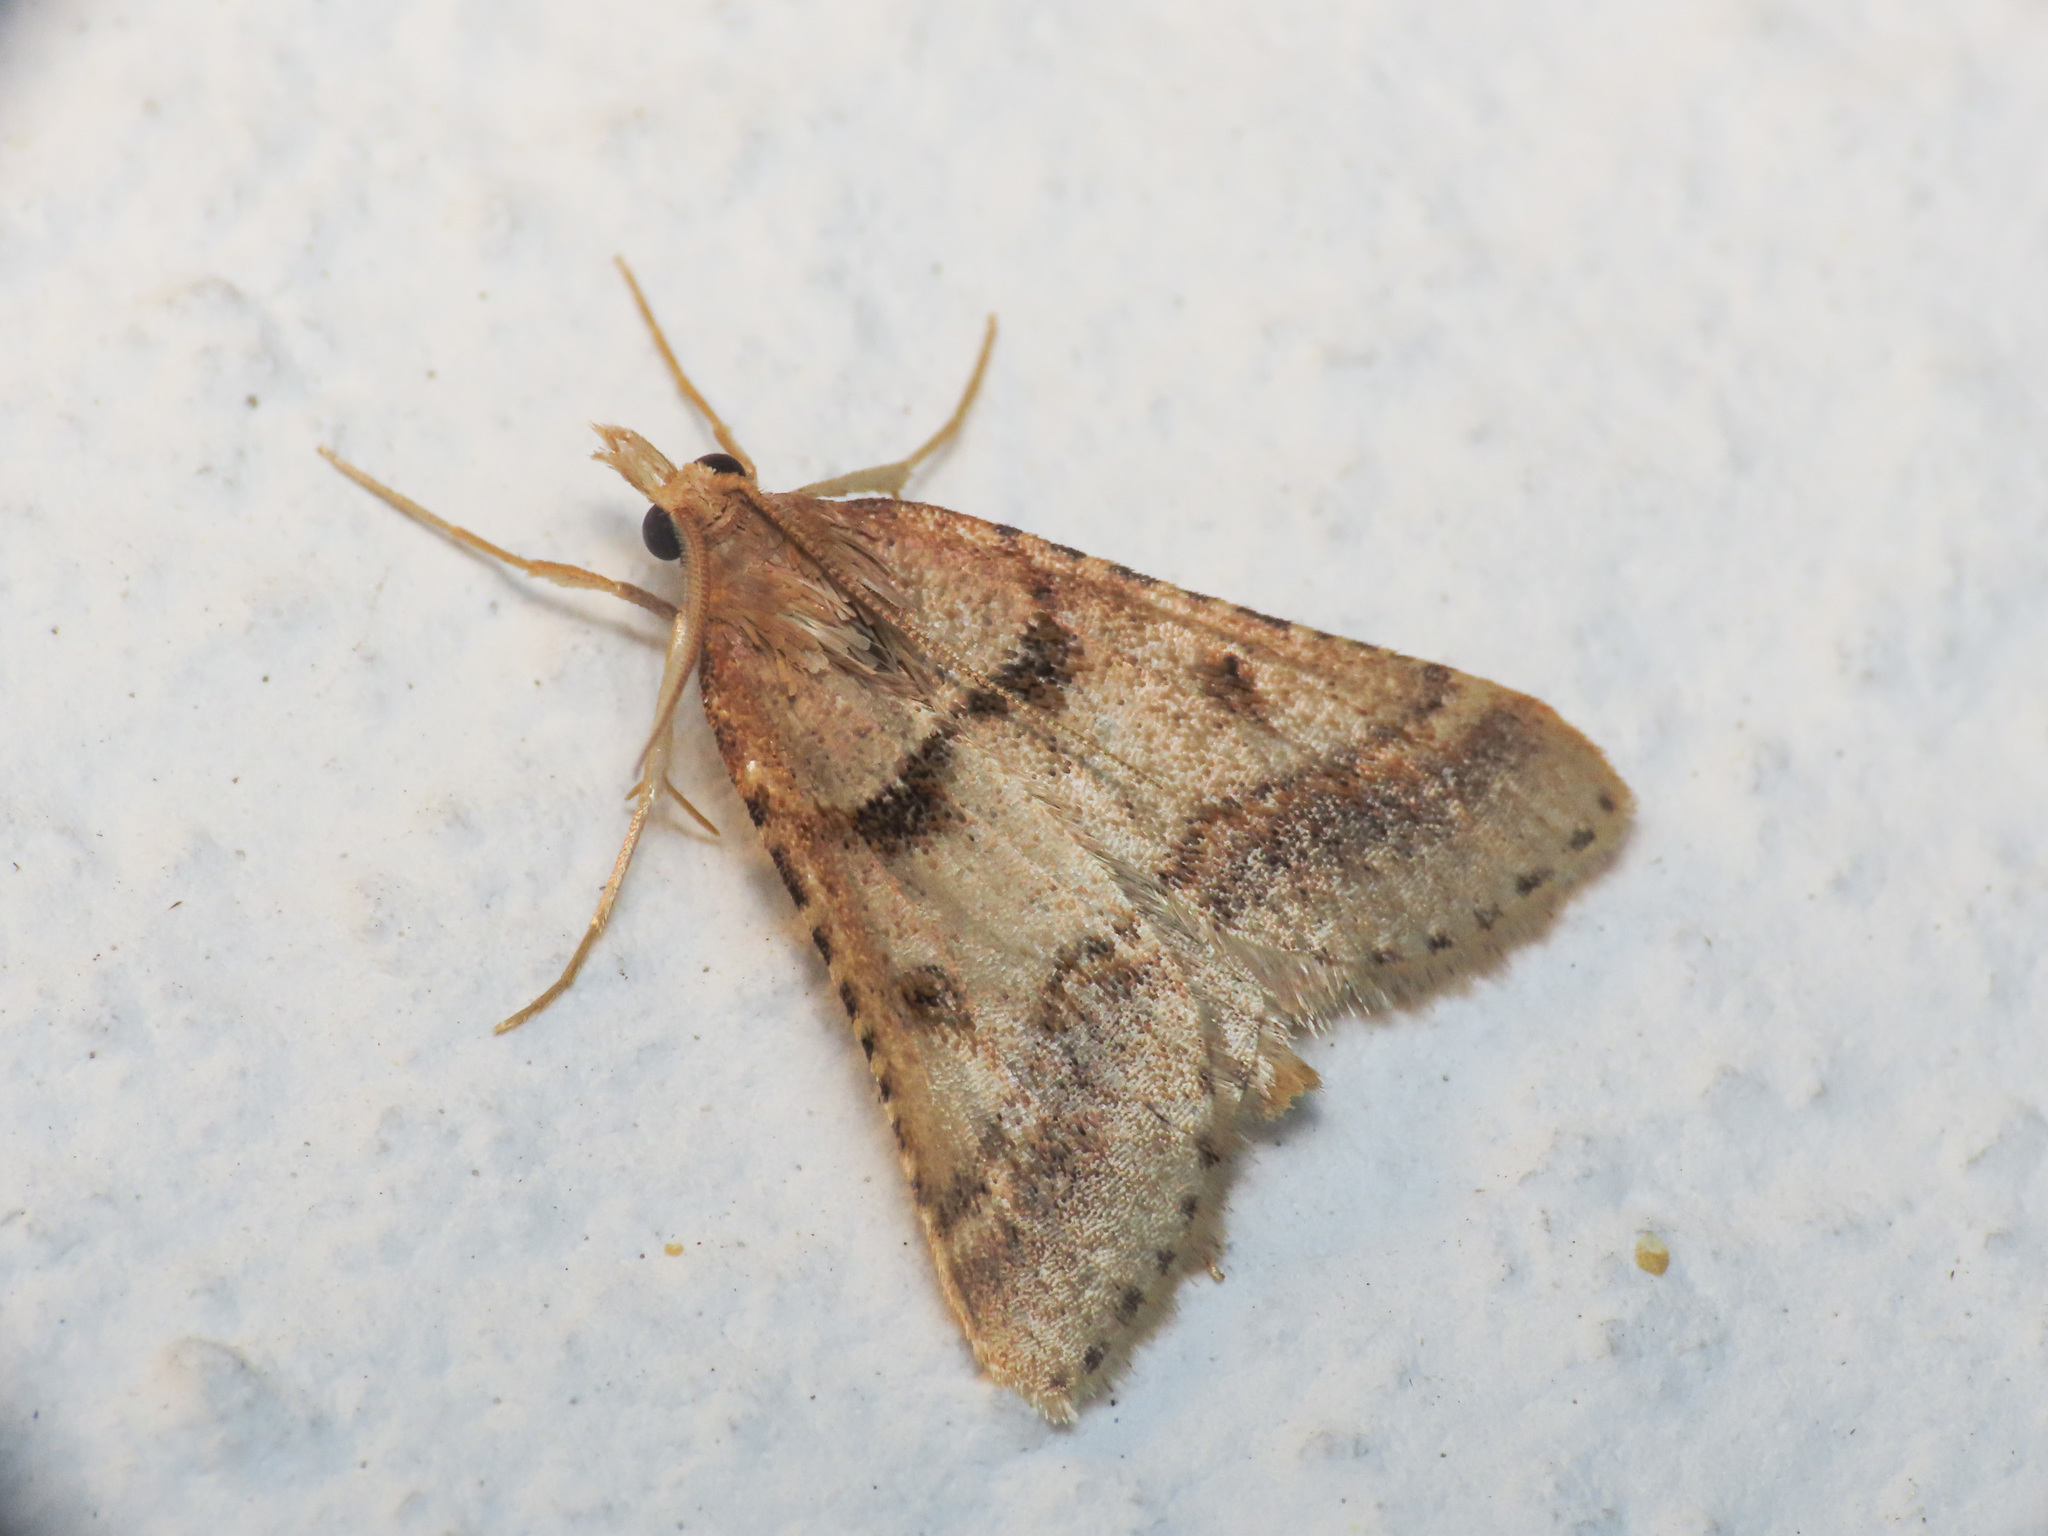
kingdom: Animalia
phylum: Arthropoda
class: Insecta
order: Lepidoptera
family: Pyralidae
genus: Stemmatophora
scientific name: Stemmatophora brunnealis
